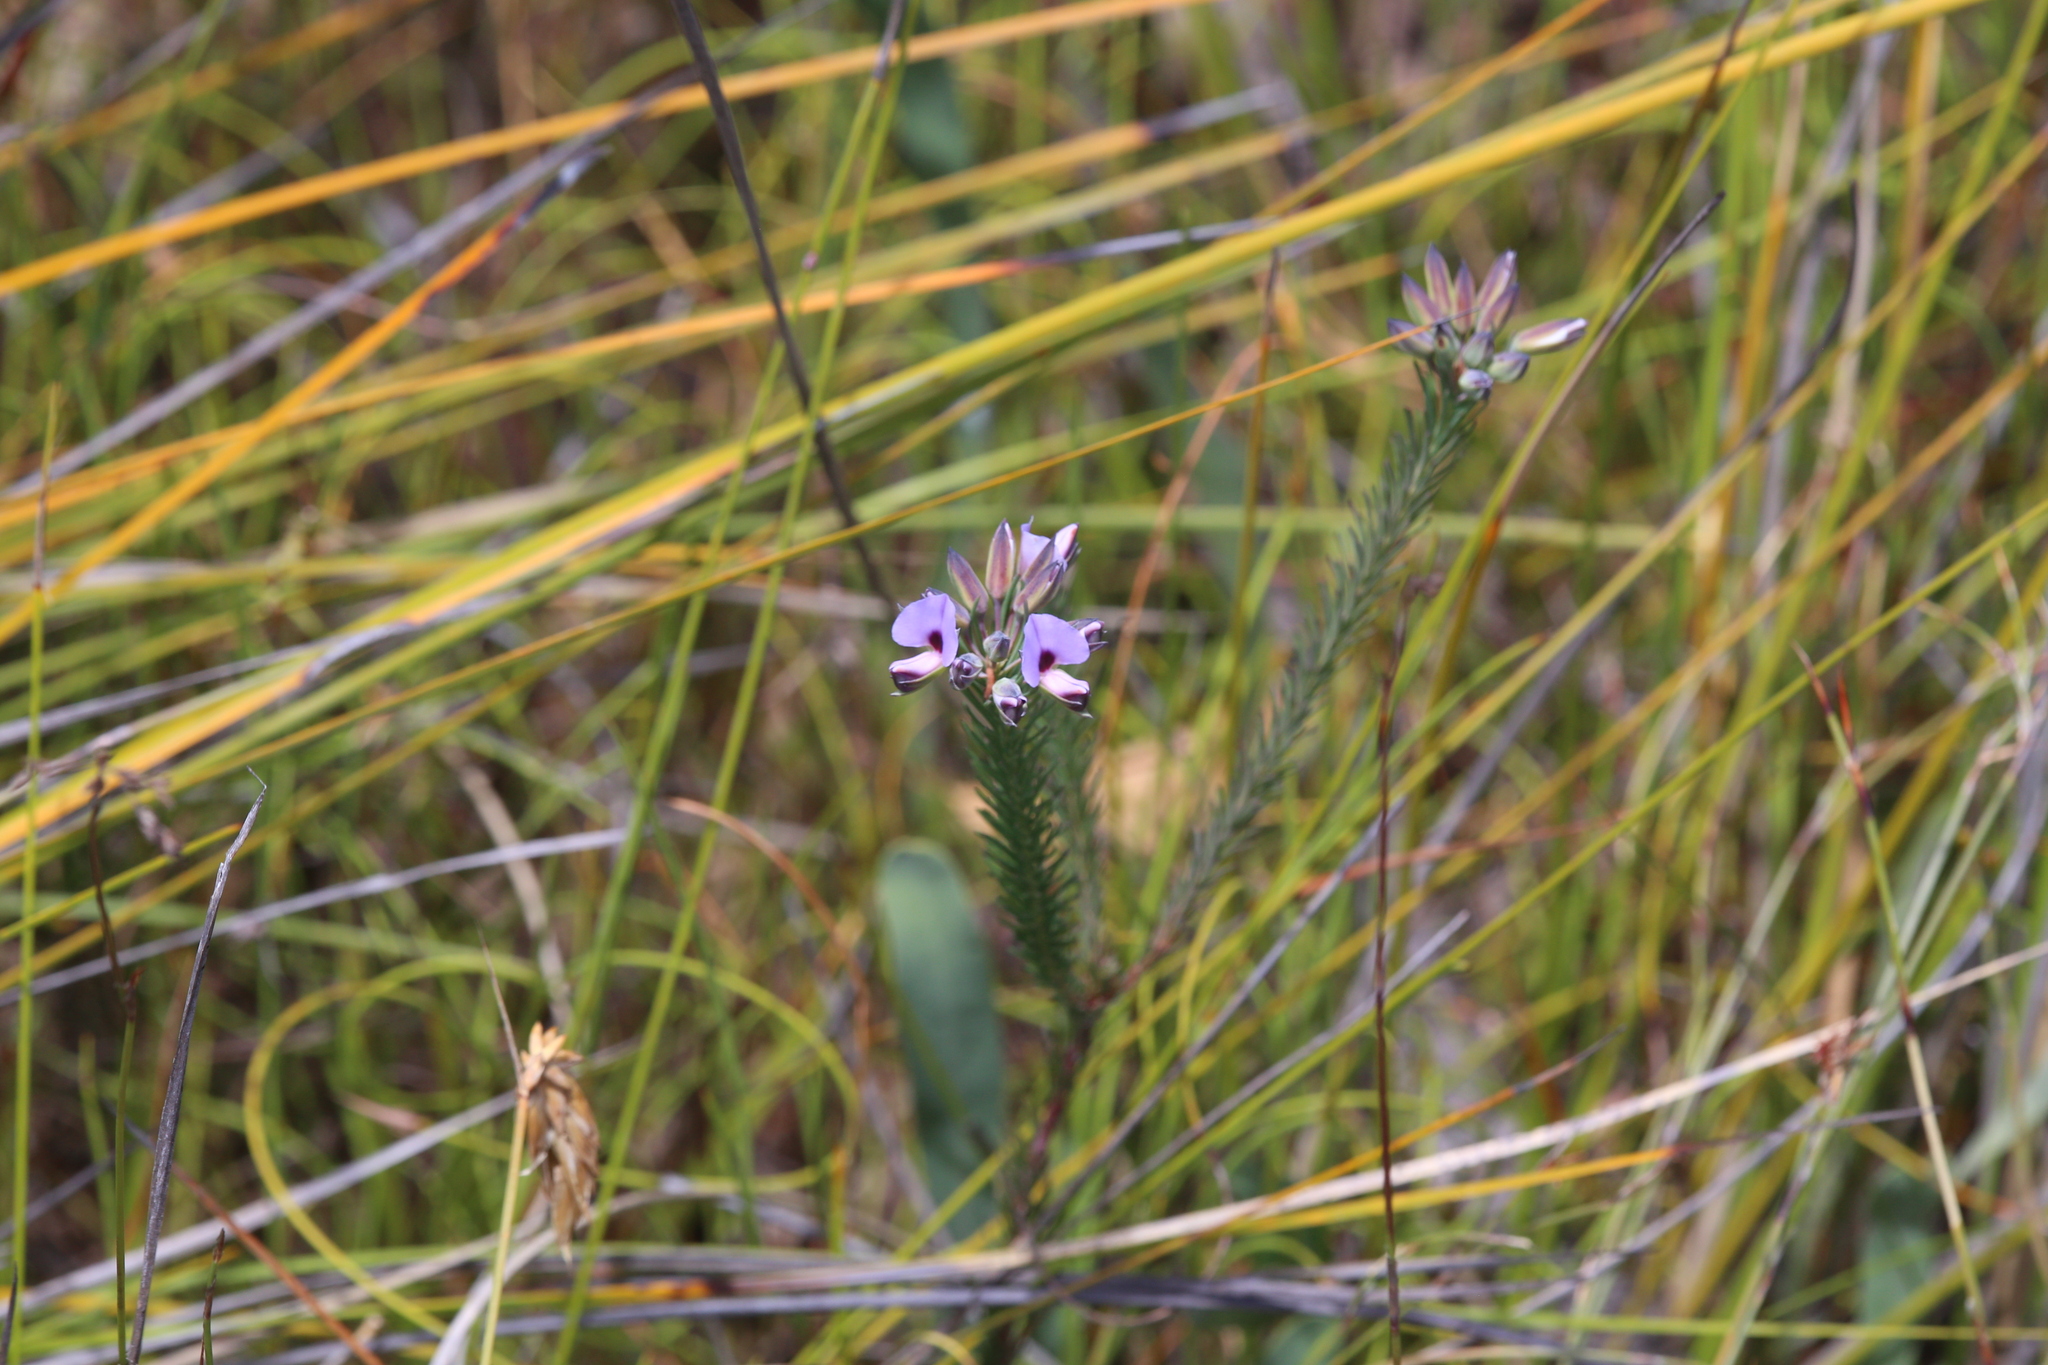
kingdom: Plantae
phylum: Tracheophyta
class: Magnoliopsida
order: Fabales
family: Fabaceae
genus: Gompholobium
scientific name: Gompholobium confertum
